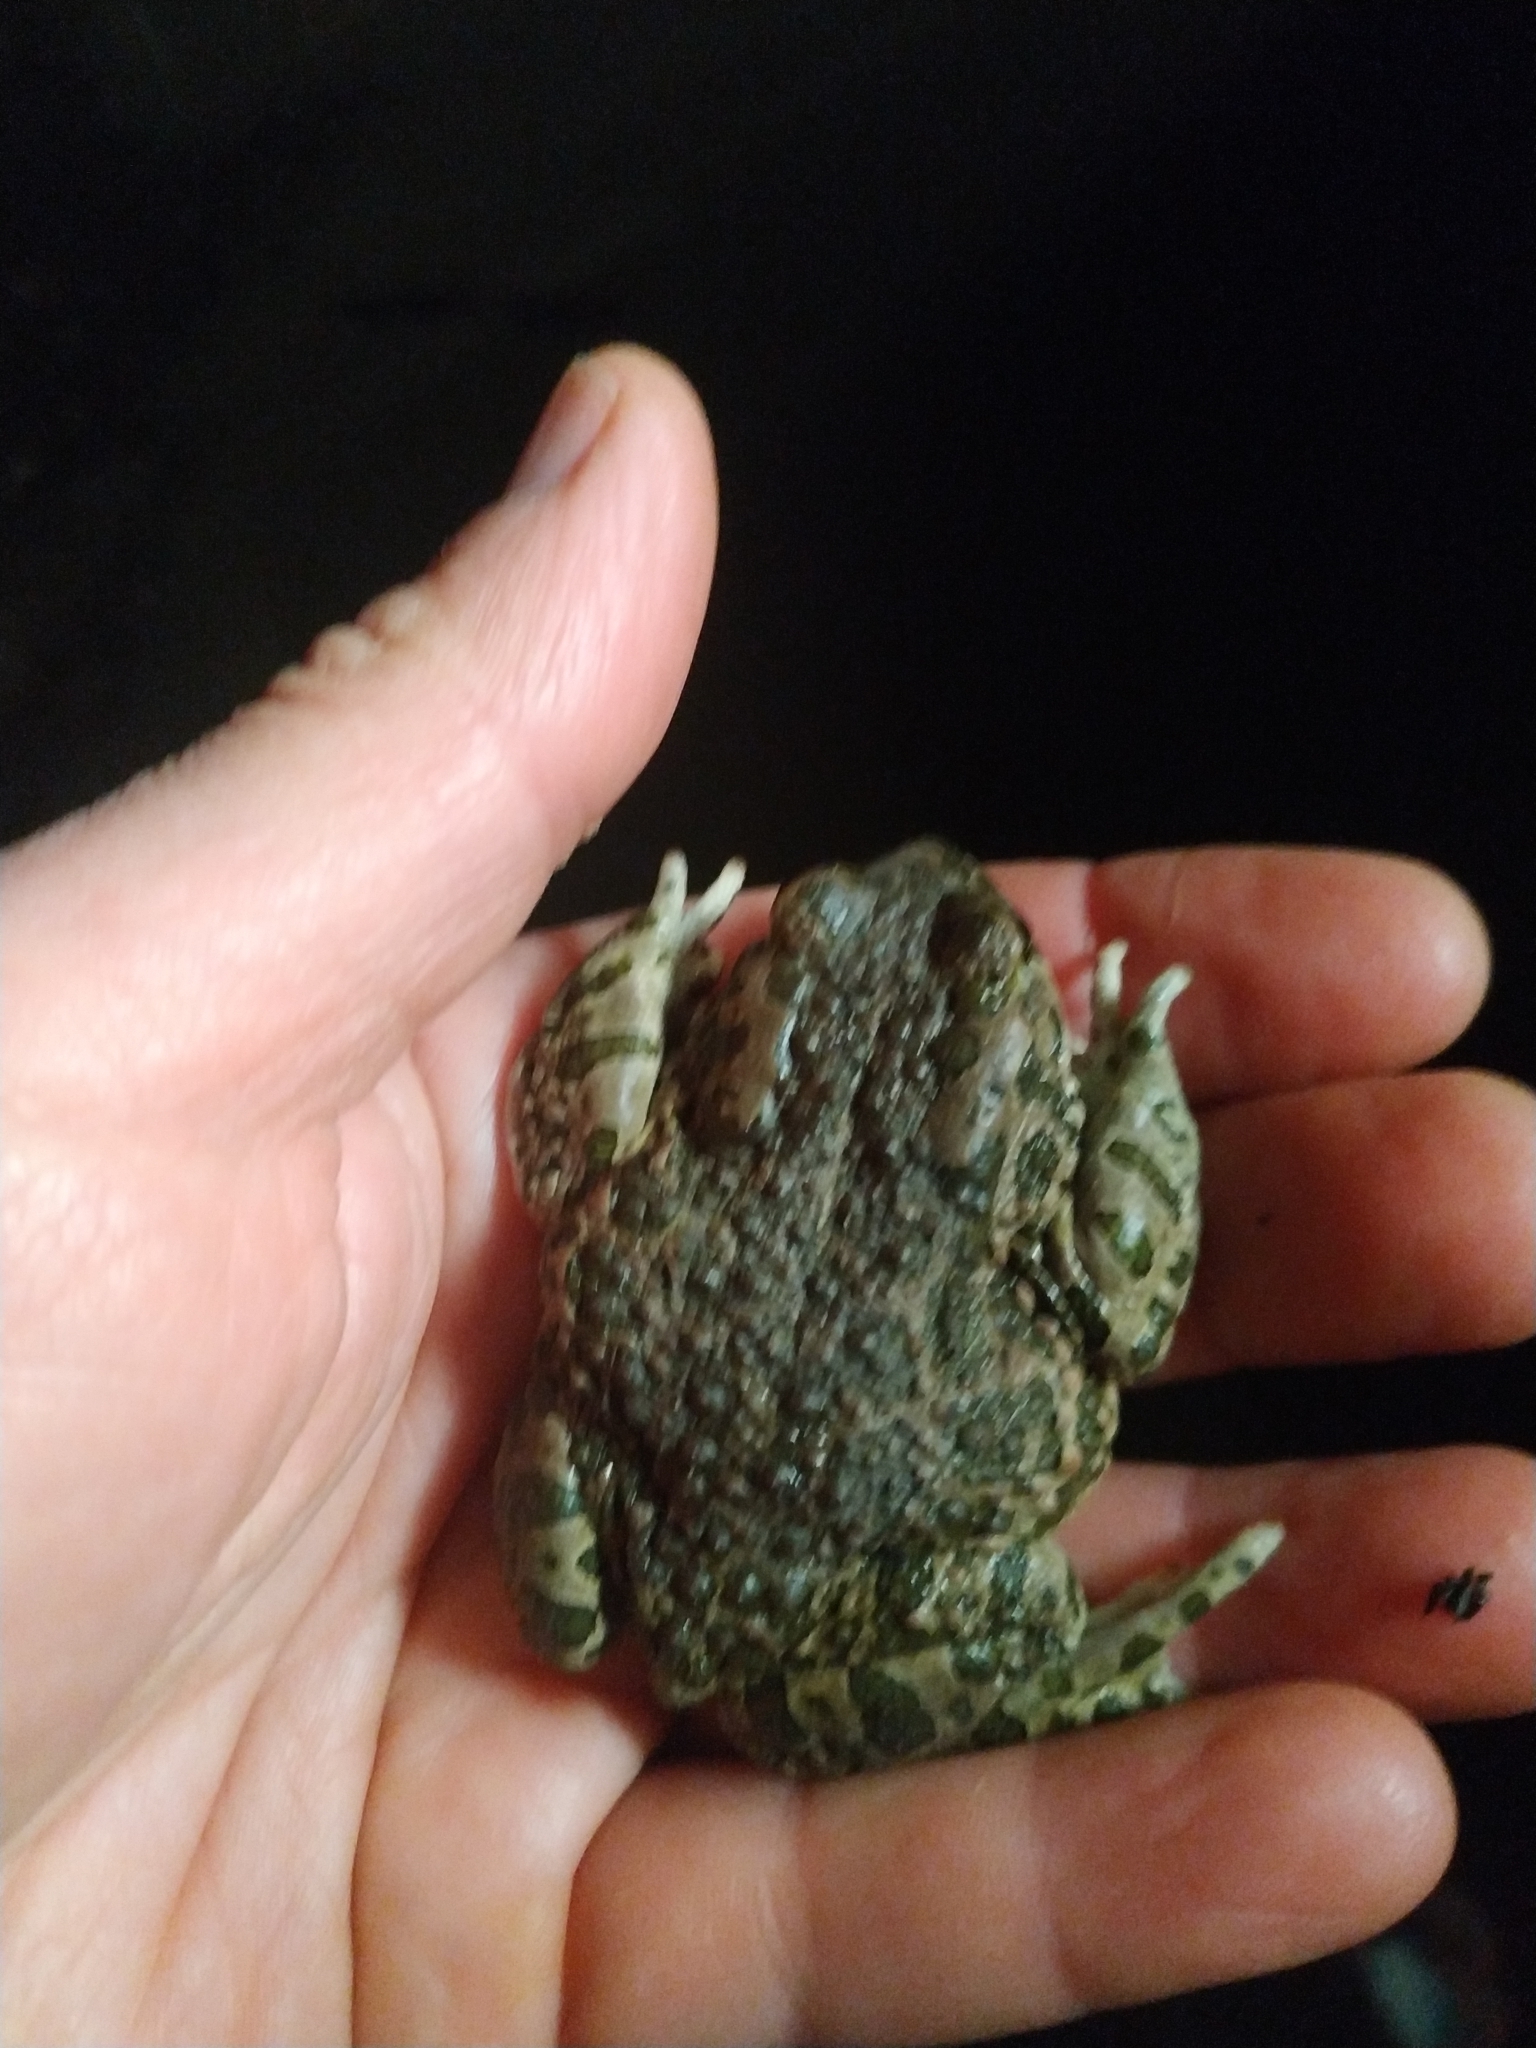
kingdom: Animalia
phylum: Chordata
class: Amphibia
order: Anura
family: Bufonidae
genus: Bufotes
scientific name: Bufotes viridis
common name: European green toad
